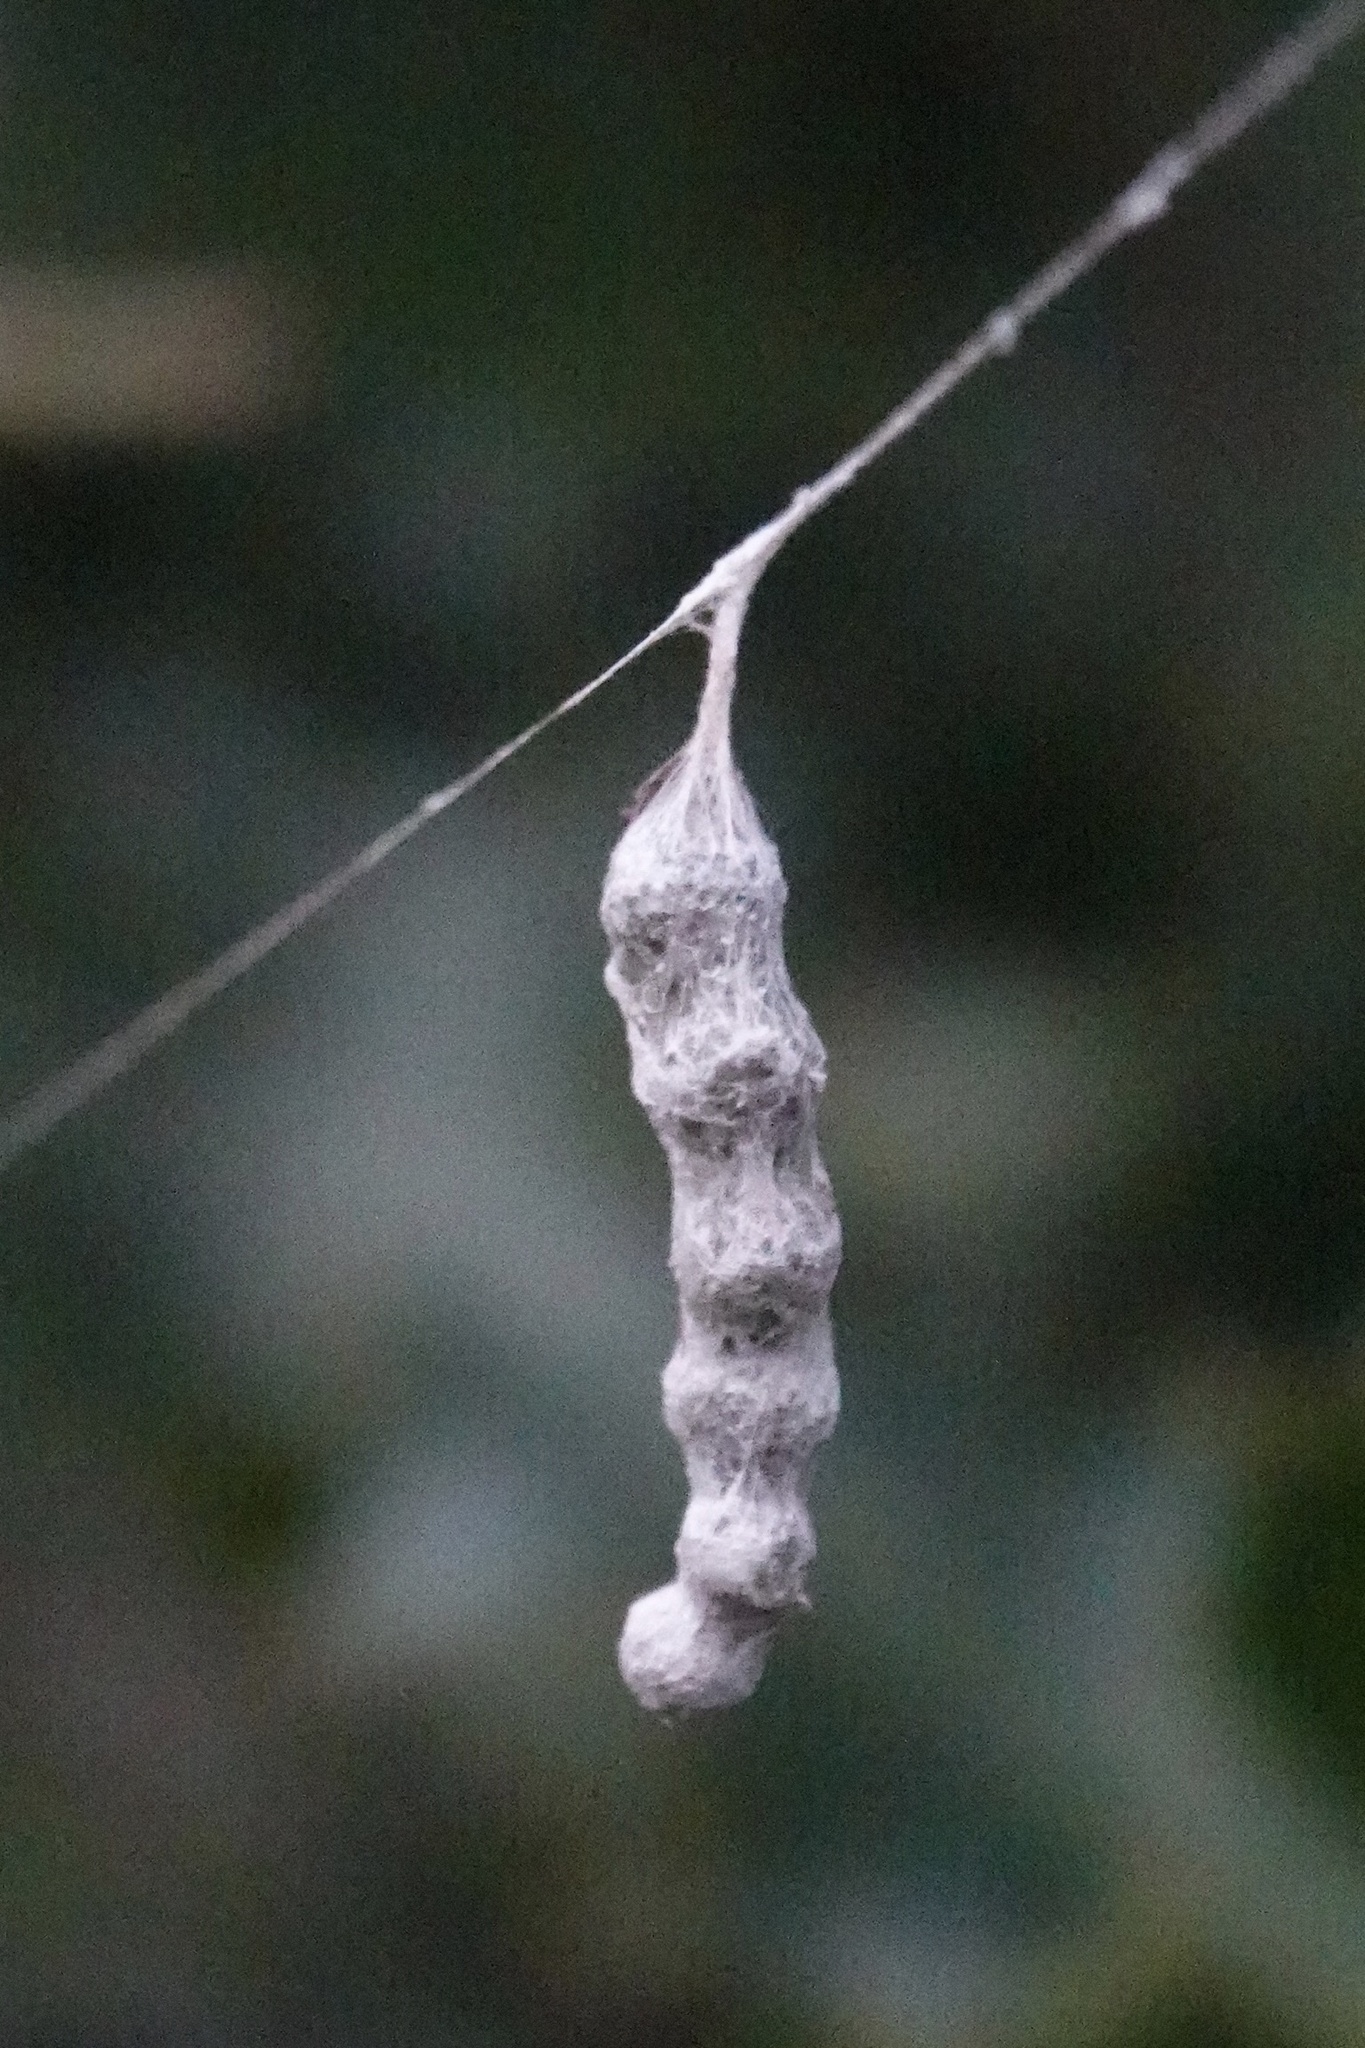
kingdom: Animalia
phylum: Arthropoda
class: Arachnida
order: Araneae
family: Araneidae
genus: Mecynogea
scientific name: Mecynogea lemniscata
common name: Orb weavers
